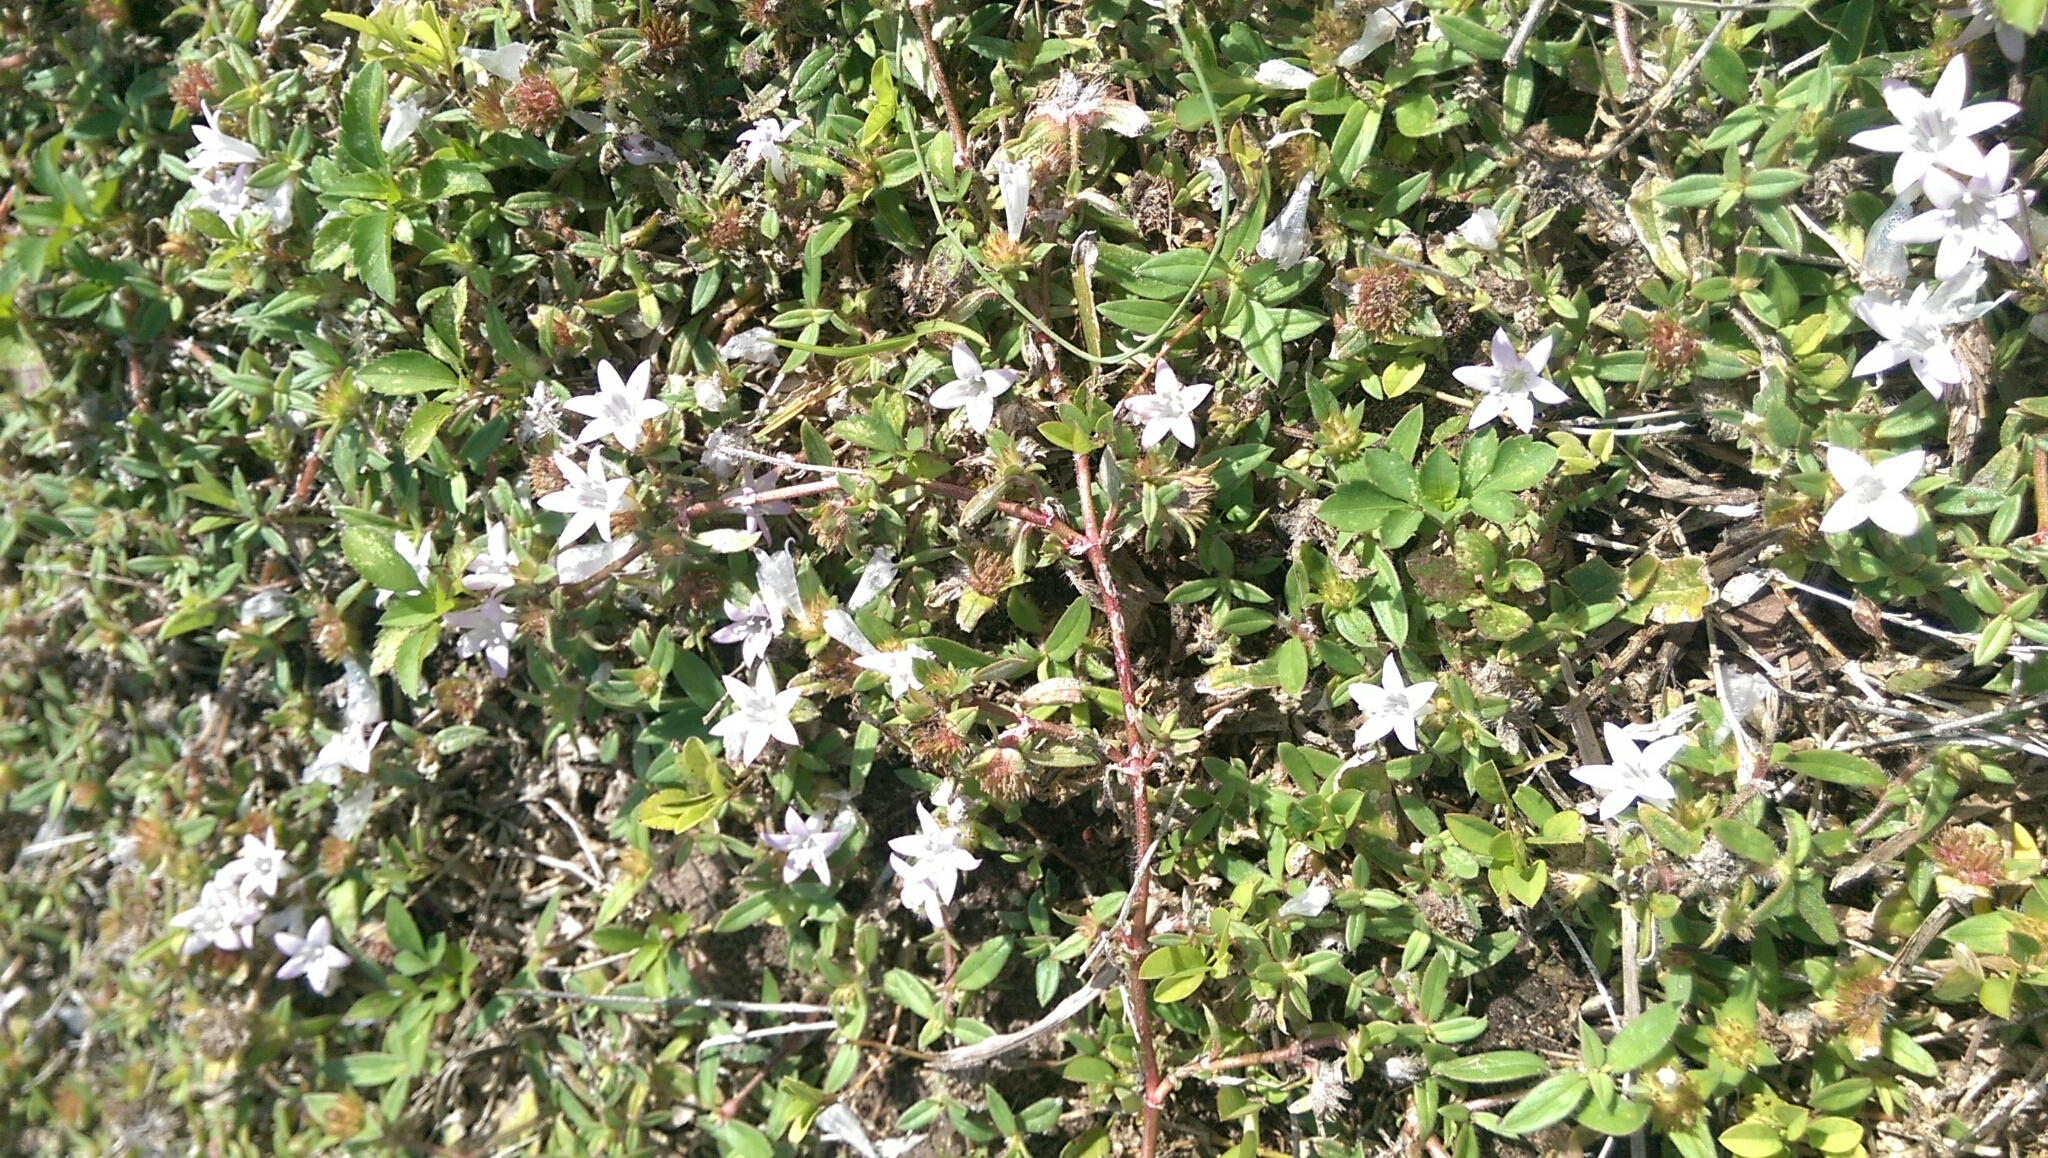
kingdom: Plantae
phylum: Tracheophyta
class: Magnoliopsida
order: Gentianales
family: Rubiaceae
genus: Richardia
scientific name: Richardia grandiflora
